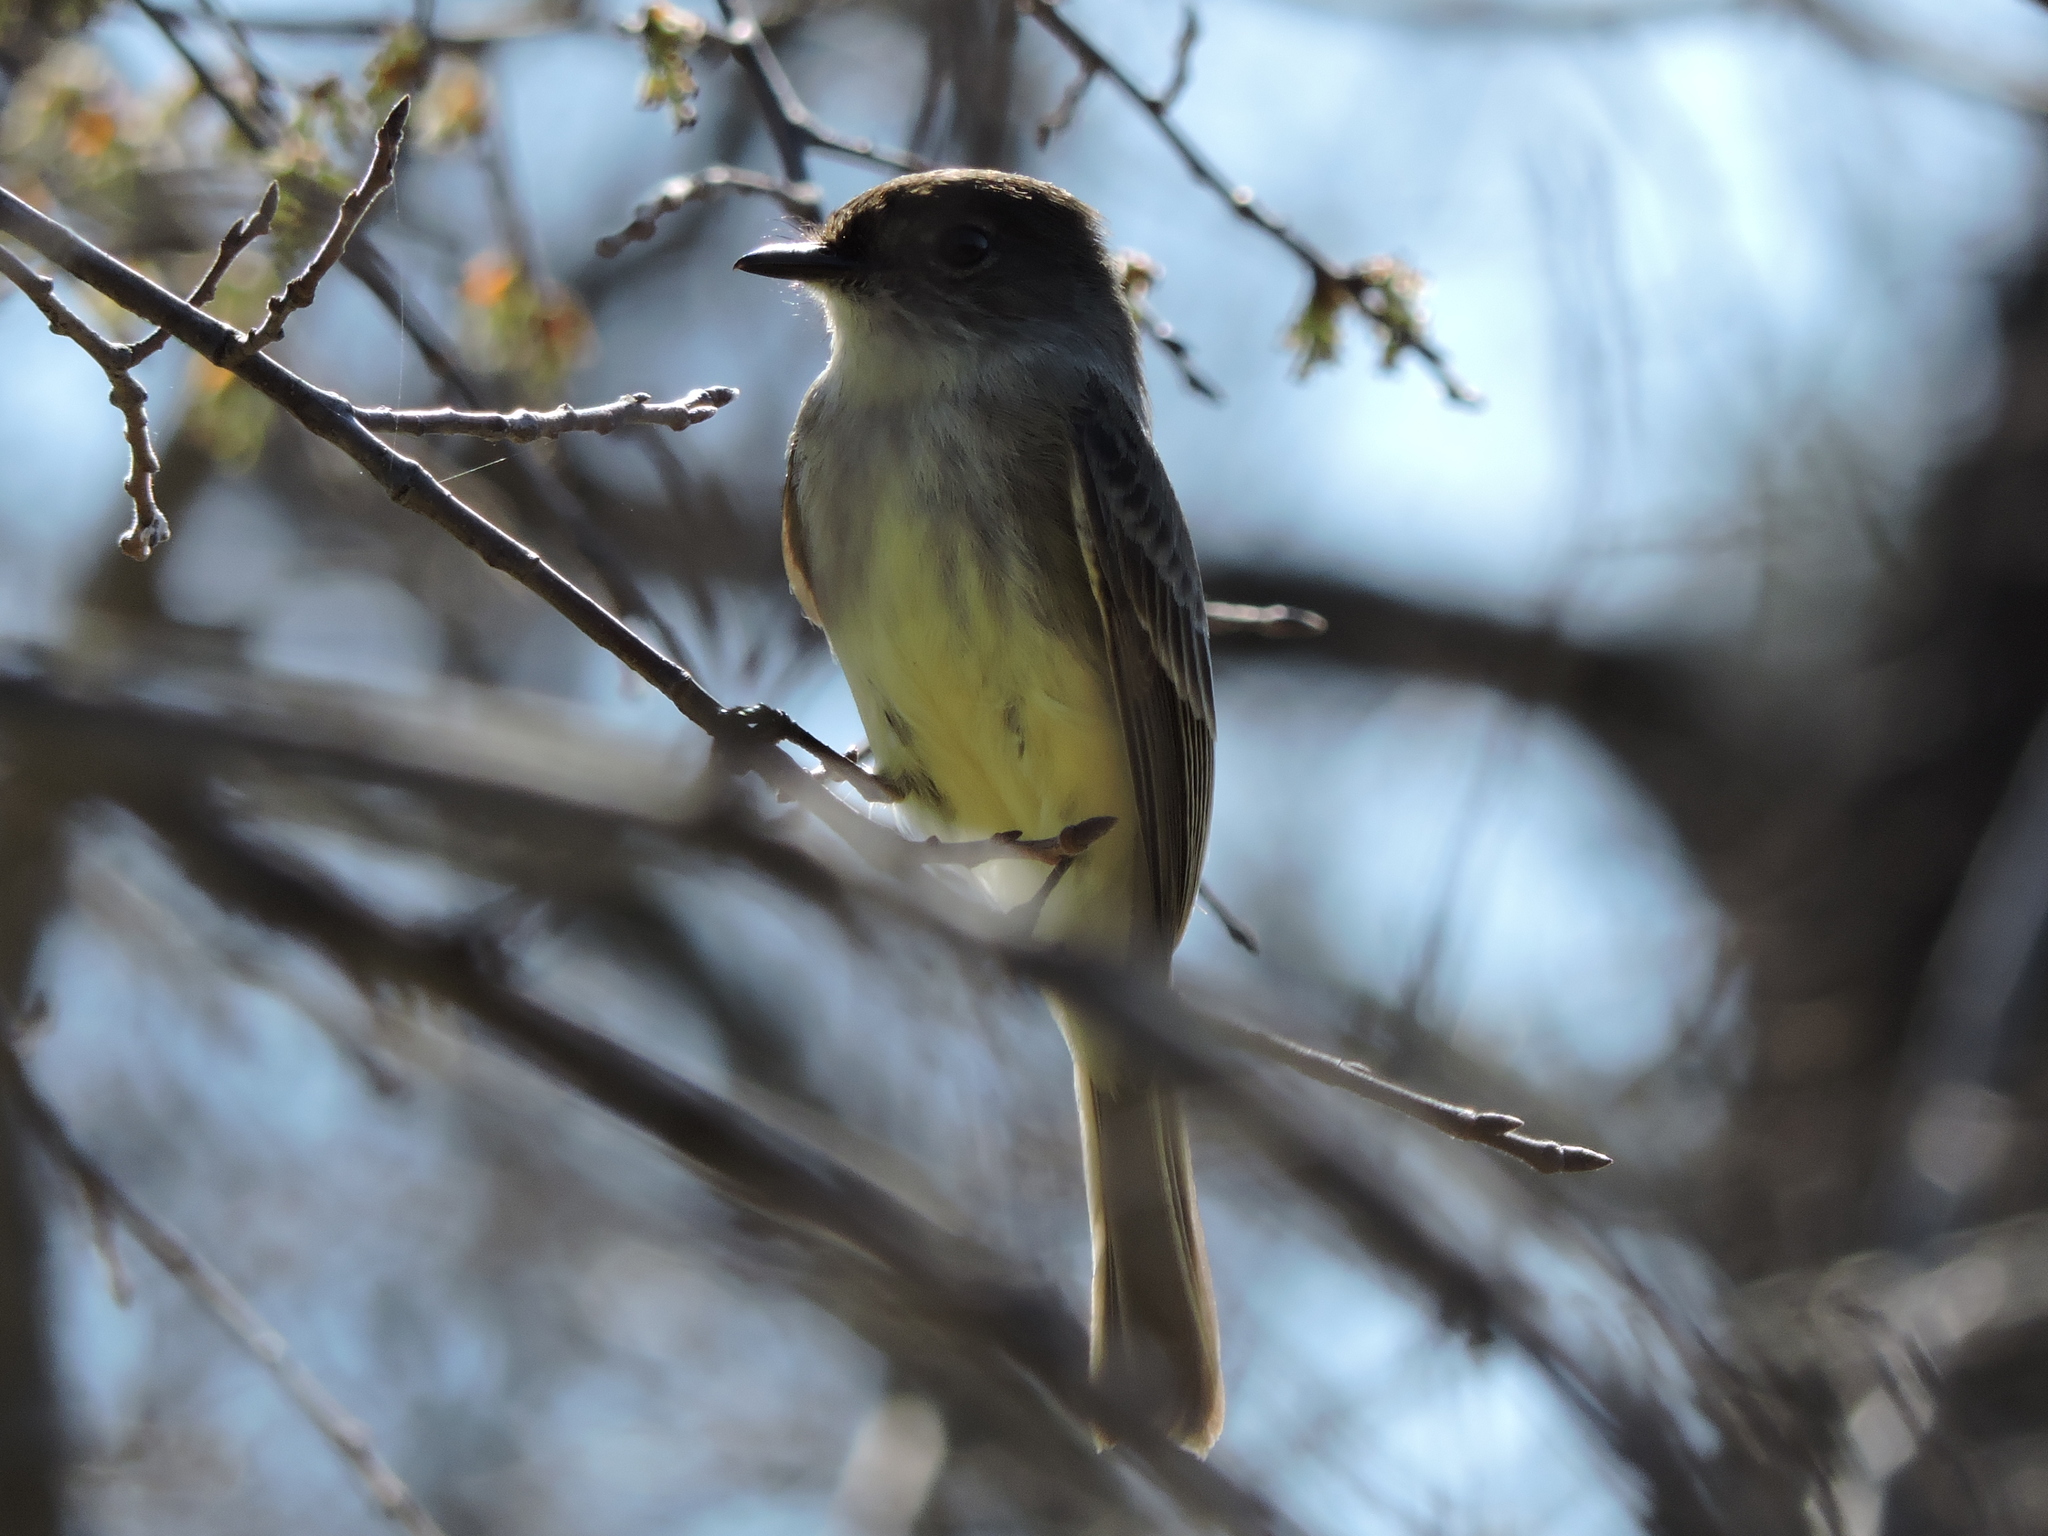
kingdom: Animalia
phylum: Chordata
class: Aves
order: Passeriformes
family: Tyrannidae
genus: Sayornis
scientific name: Sayornis phoebe
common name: Eastern phoebe
